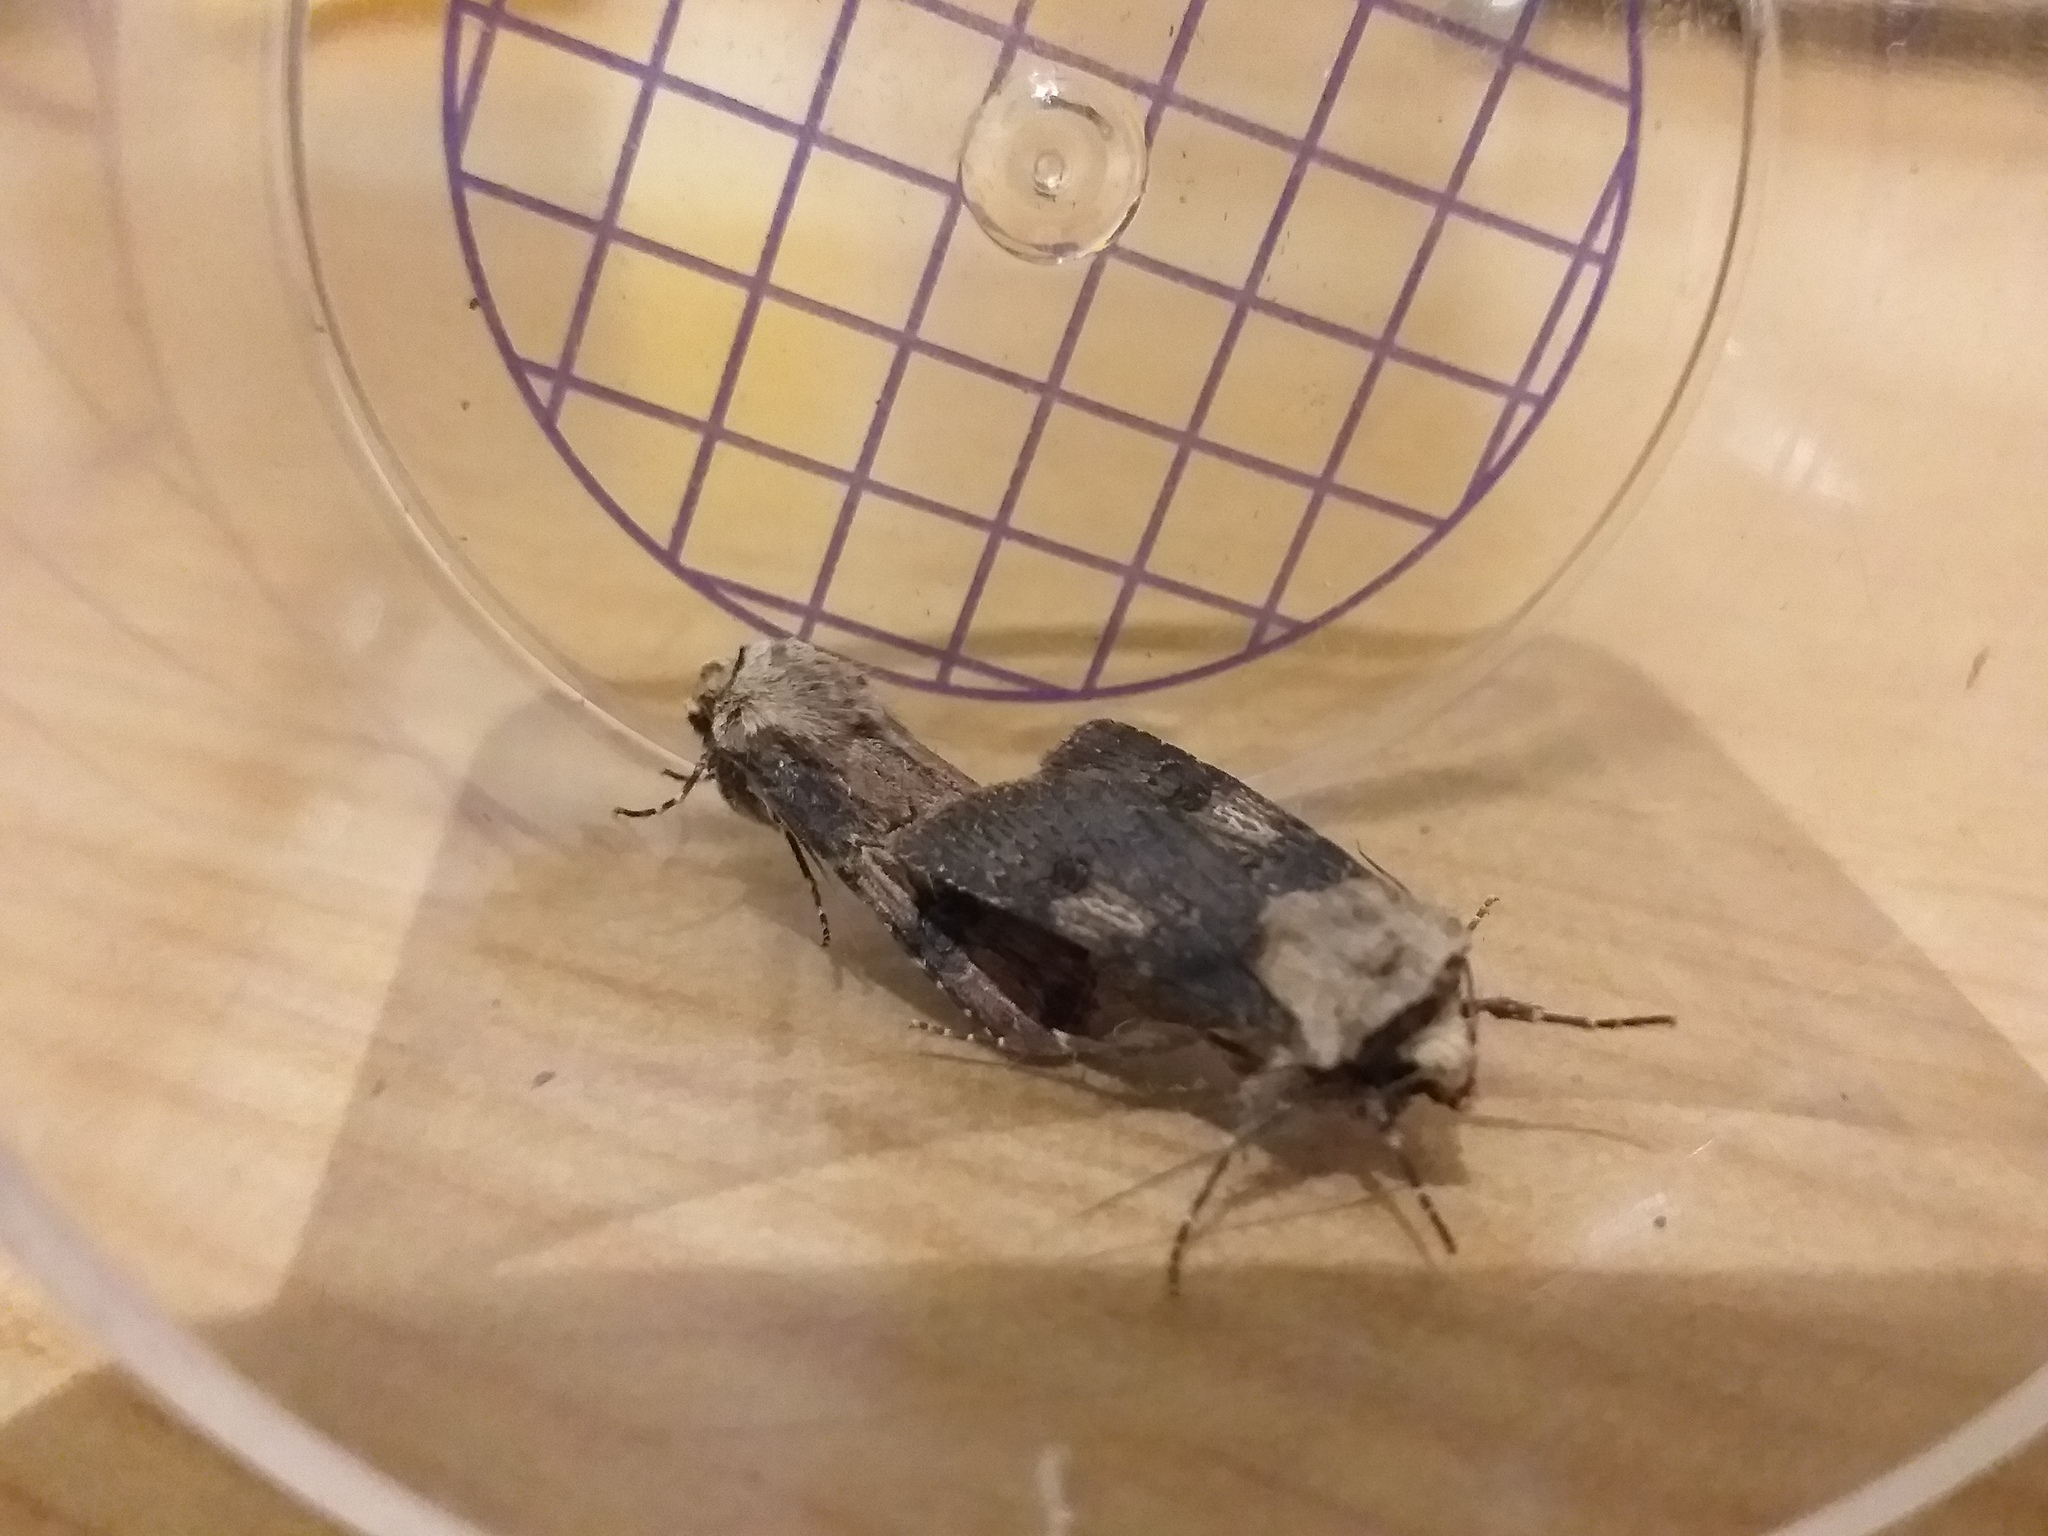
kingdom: Animalia
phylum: Arthropoda
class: Insecta
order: Lepidoptera
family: Noctuidae
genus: Agrotis
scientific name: Agrotis puta
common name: Shuttle-shaped dart
